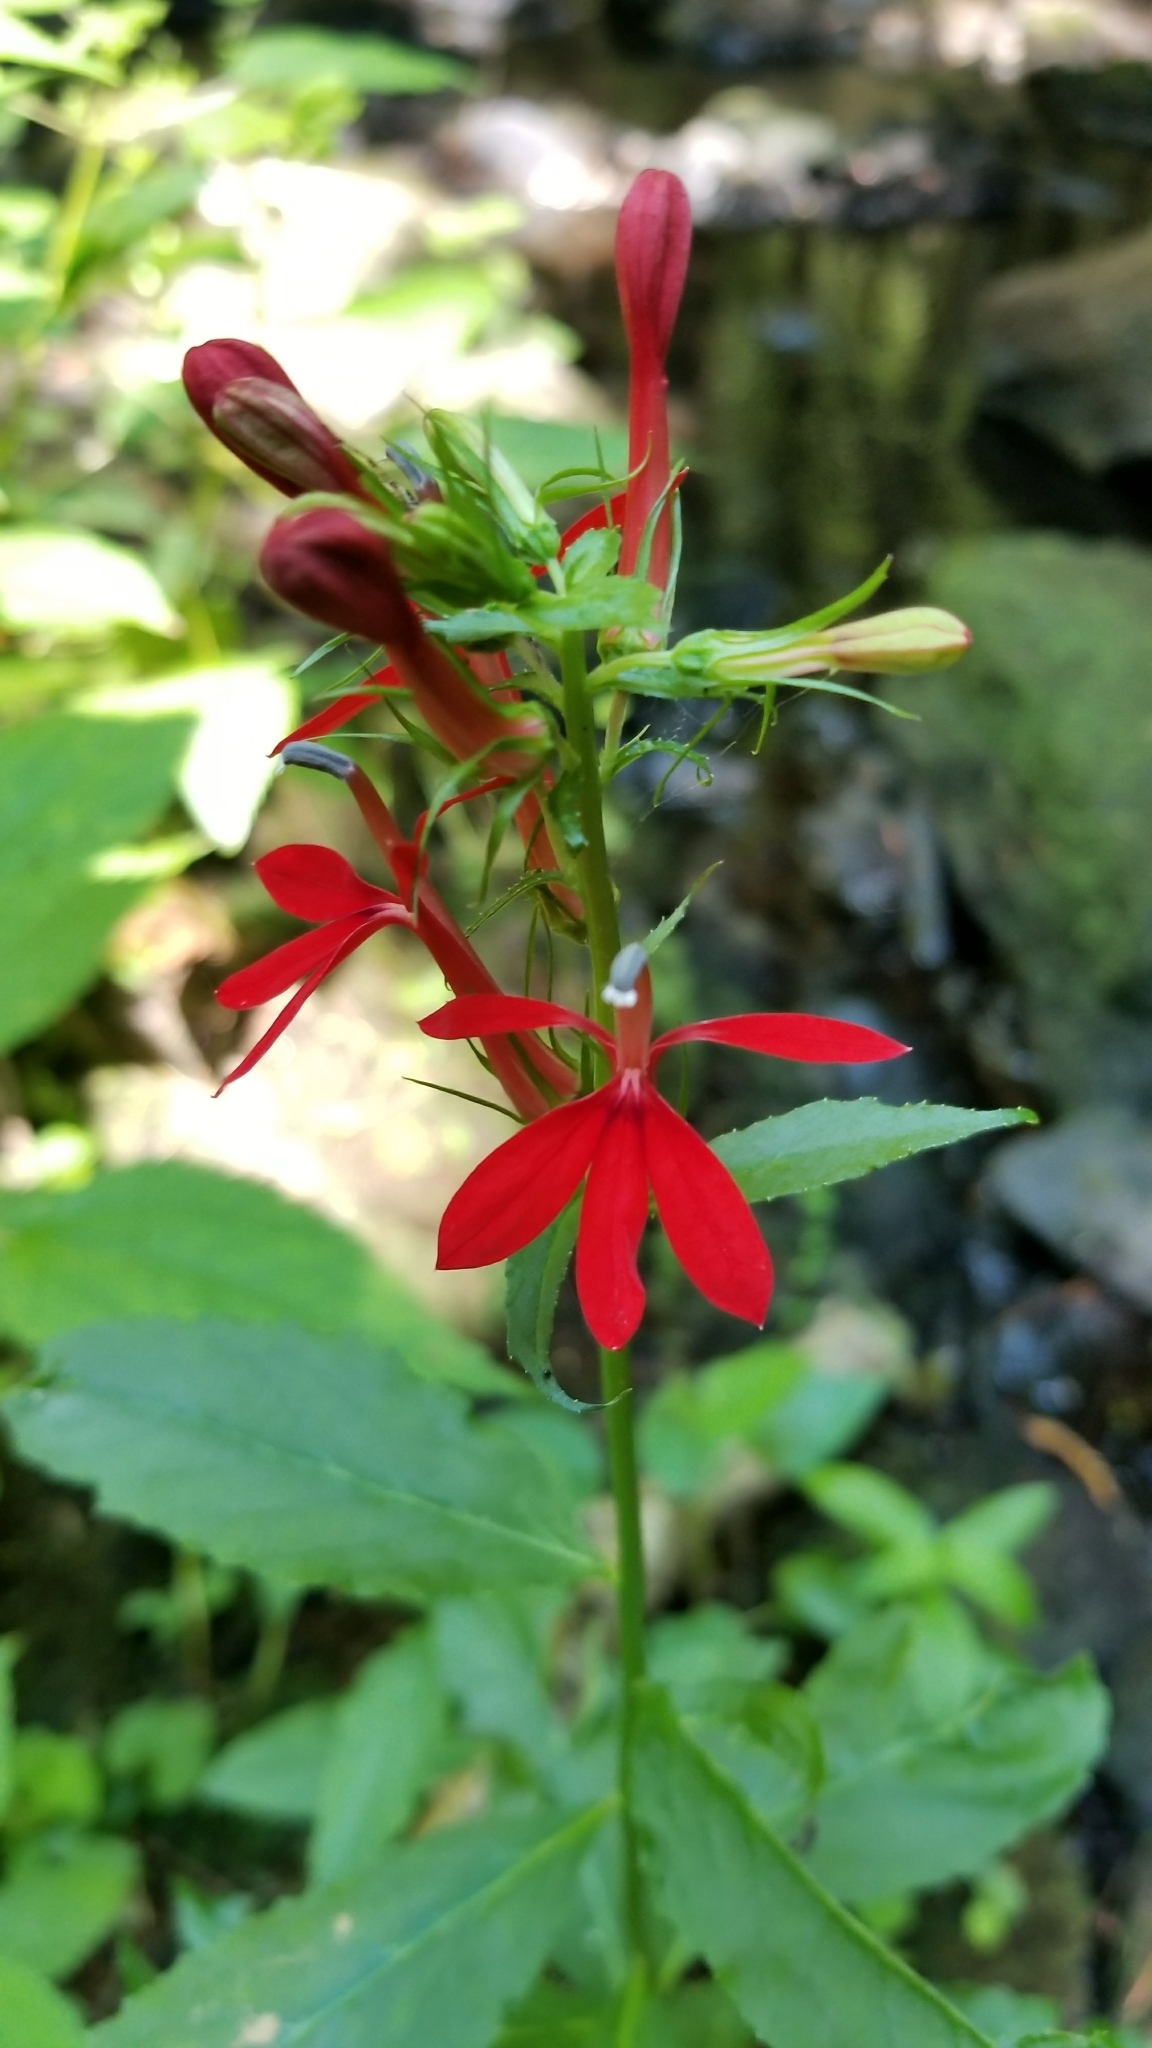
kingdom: Plantae
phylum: Tracheophyta
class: Magnoliopsida
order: Asterales
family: Campanulaceae
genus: Lobelia
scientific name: Lobelia cardinalis
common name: Cardinal flower
